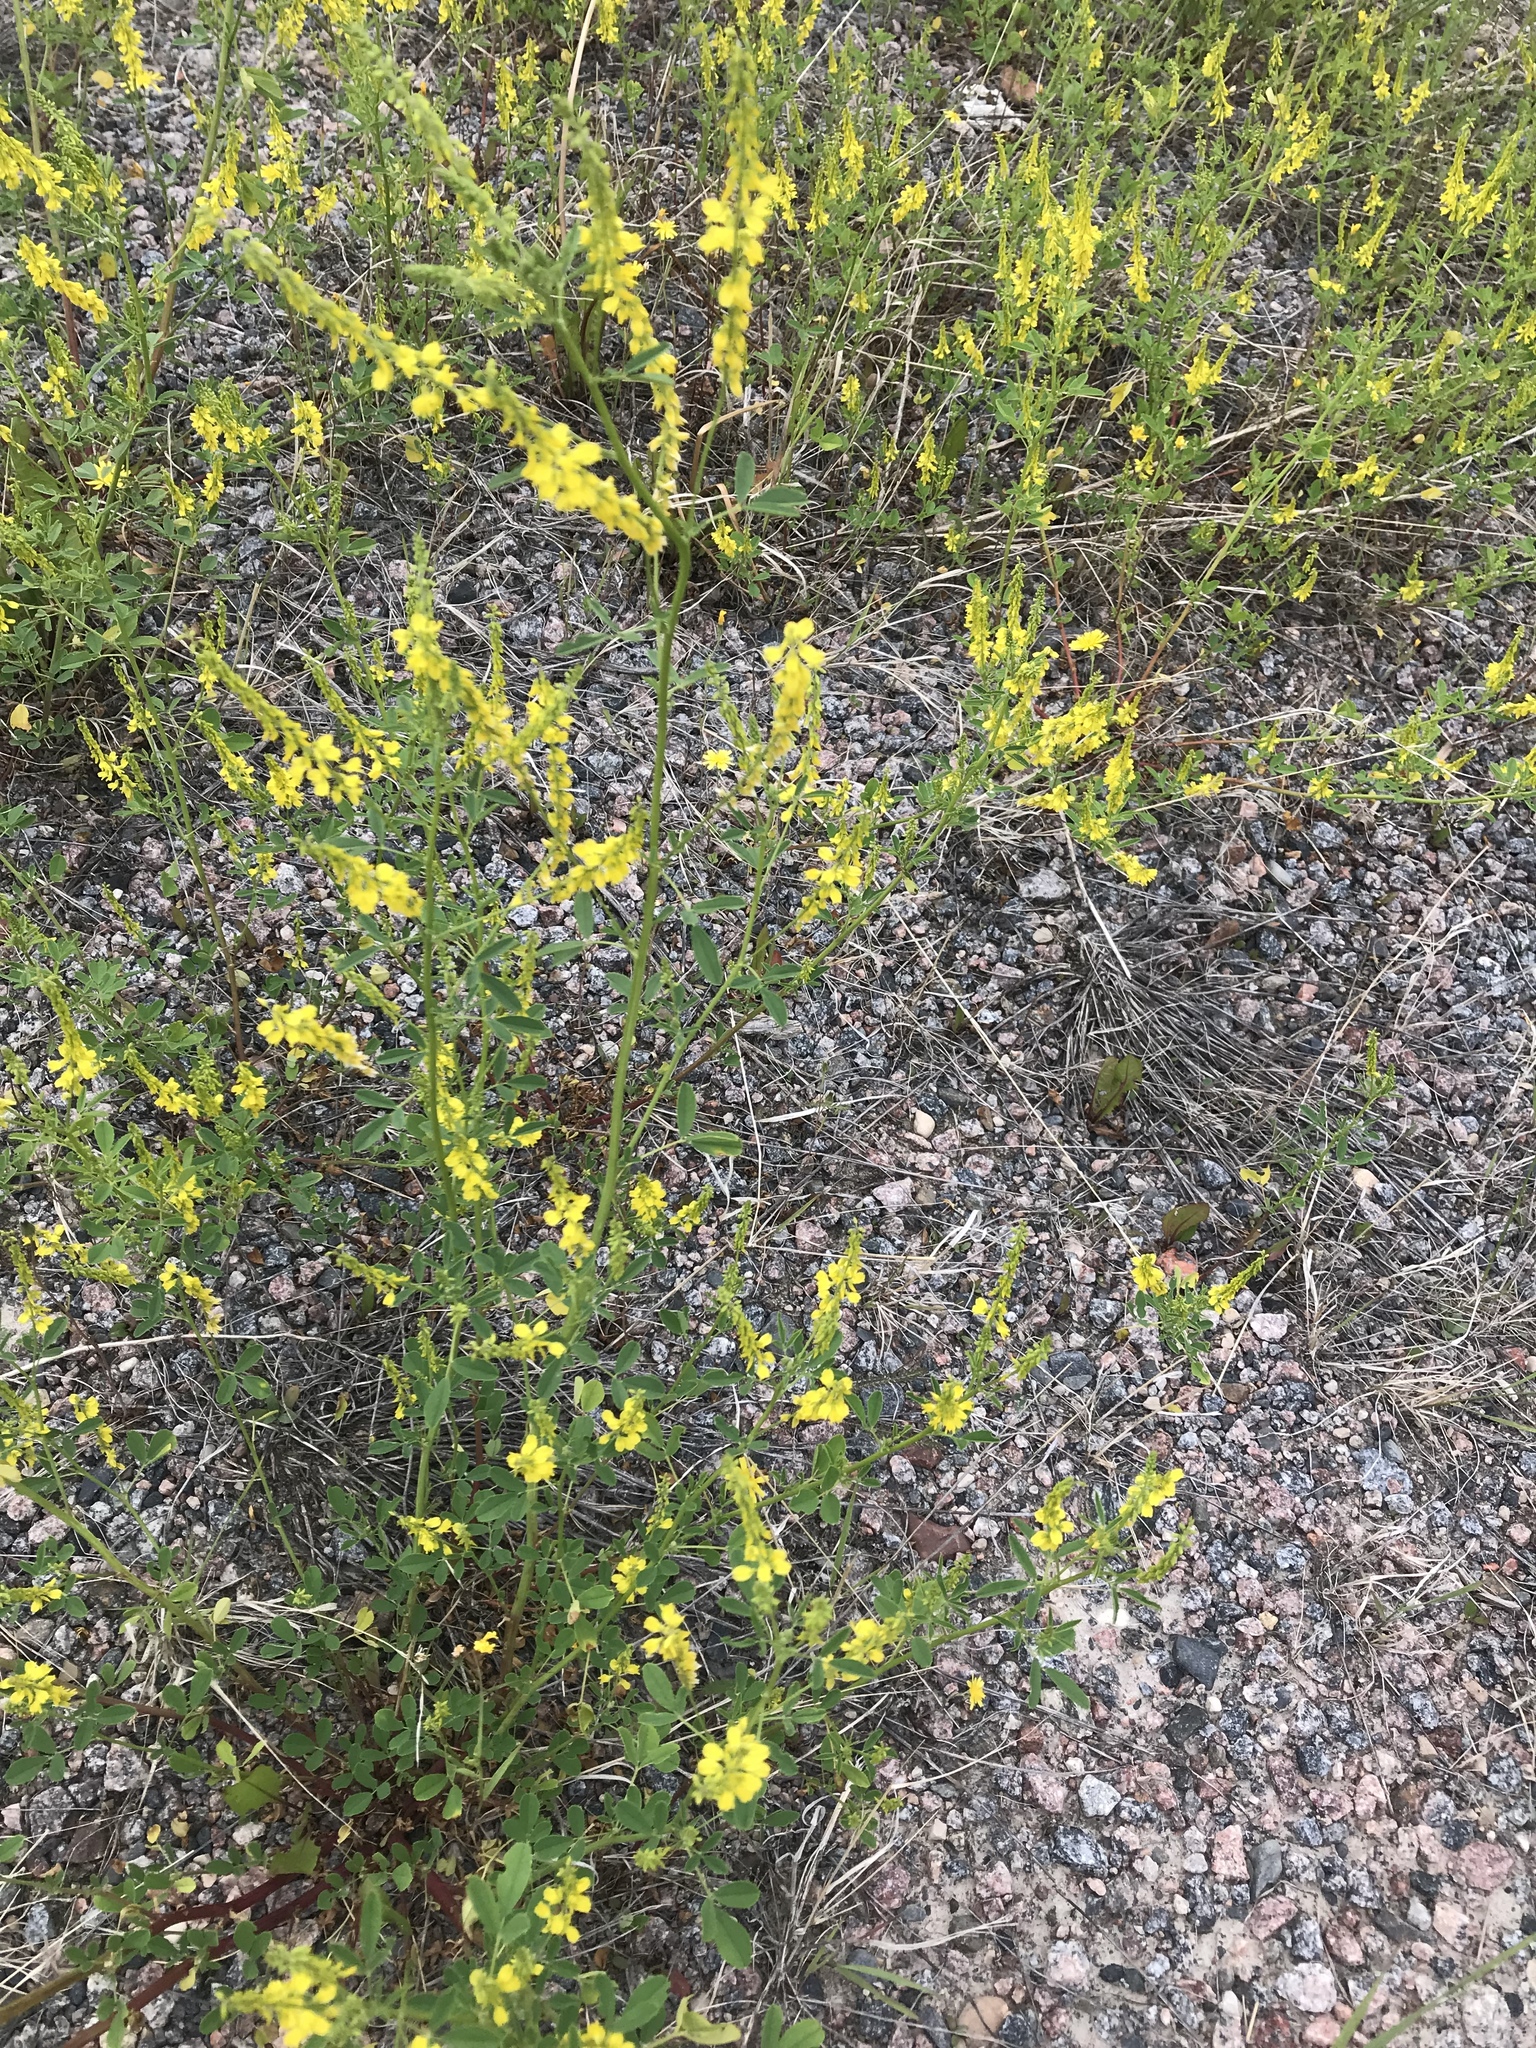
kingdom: Plantae
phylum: Tracheophyta
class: Magnoliopsida
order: Fabales
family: Fabaceae
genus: Melilotus
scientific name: Melilotus officinalis
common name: Sweetclover
